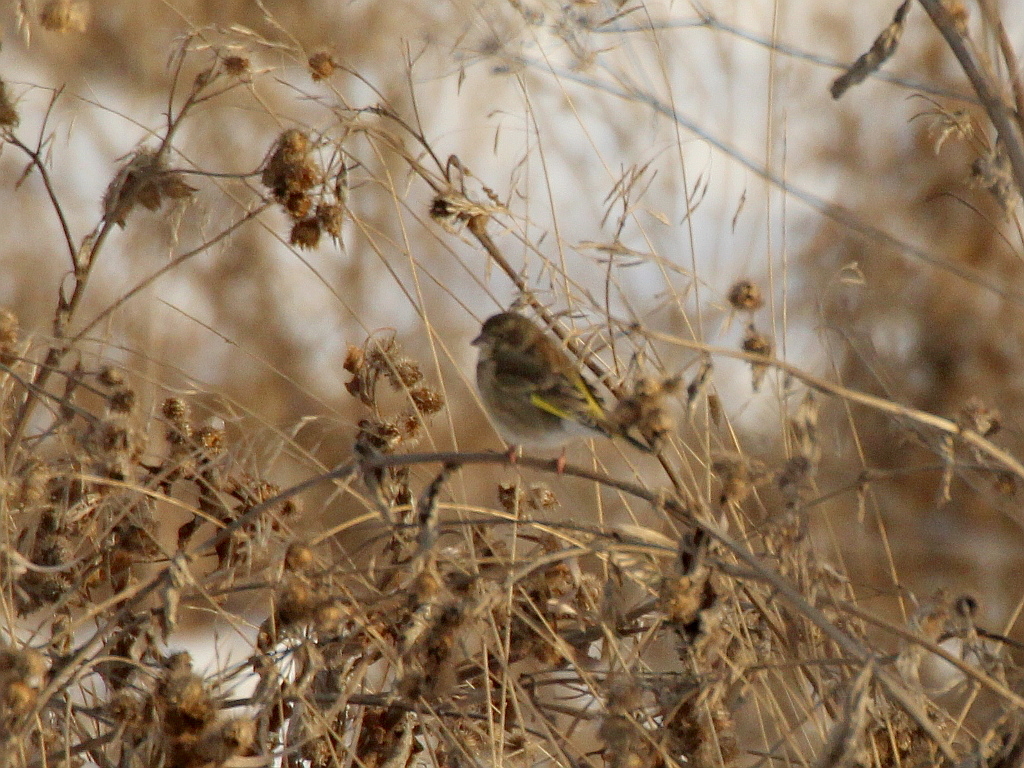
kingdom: Plantae
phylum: Tracheophyta
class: Liliopsida
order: Poales
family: Poaceae
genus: Chloris
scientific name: Chloris chloris
